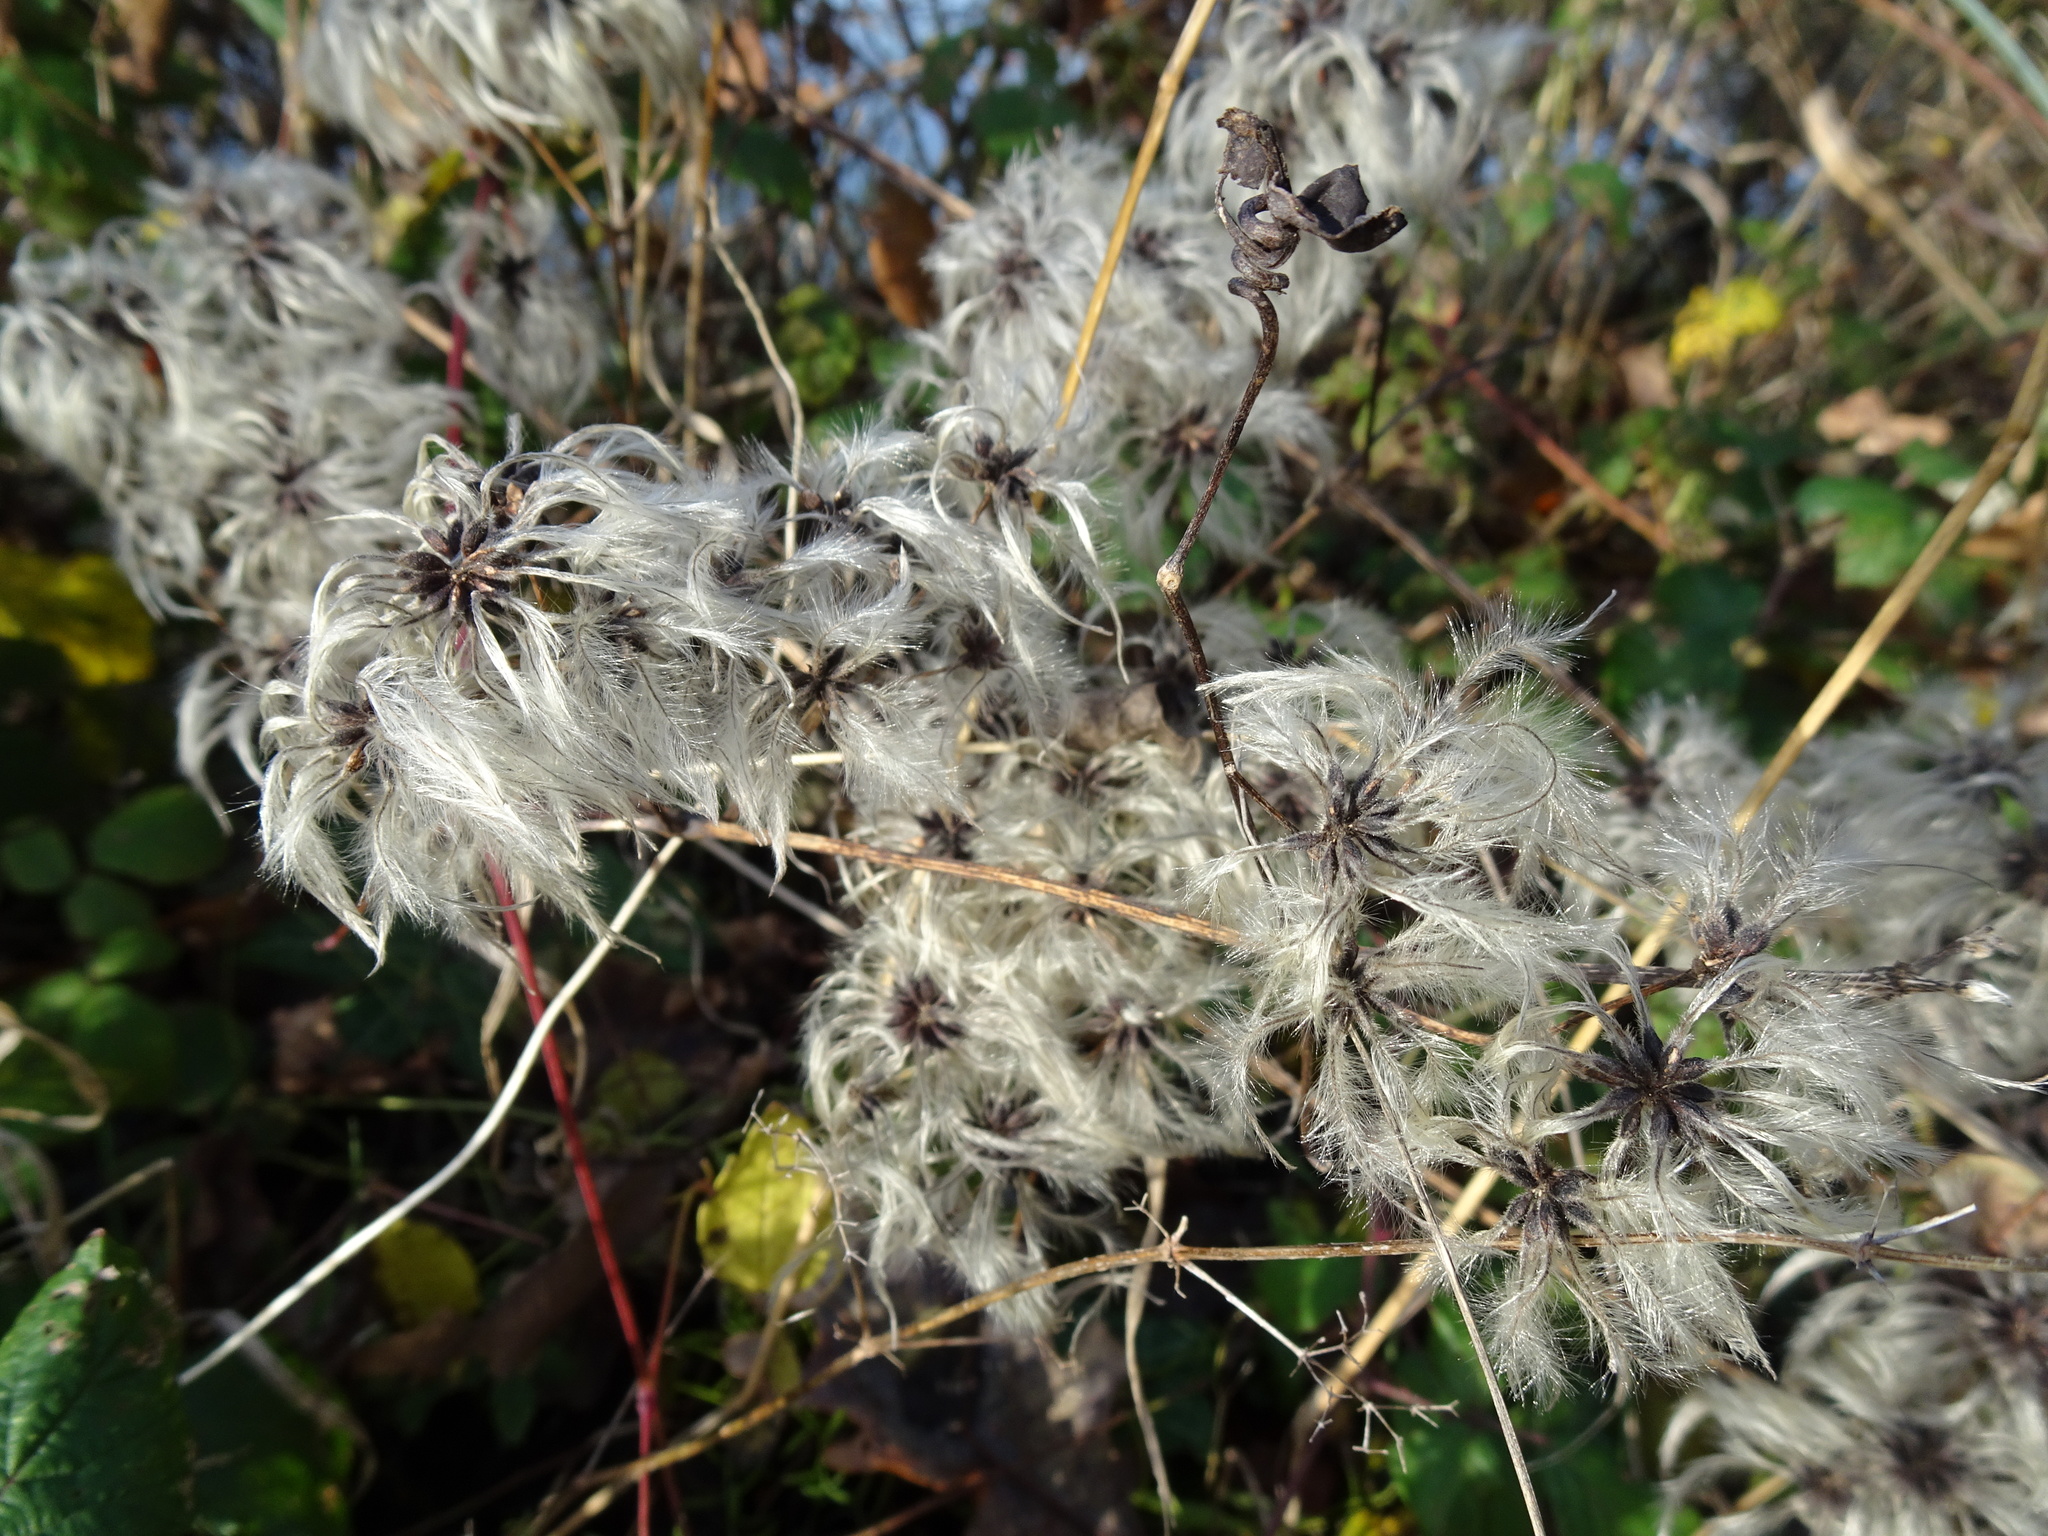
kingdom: Plantae
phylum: Tracheophyta
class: Magnoliopsida
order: Ranunculales
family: Ranunculaceae
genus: Clematis
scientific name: Clematis vitalba
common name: Evergreen clematis
